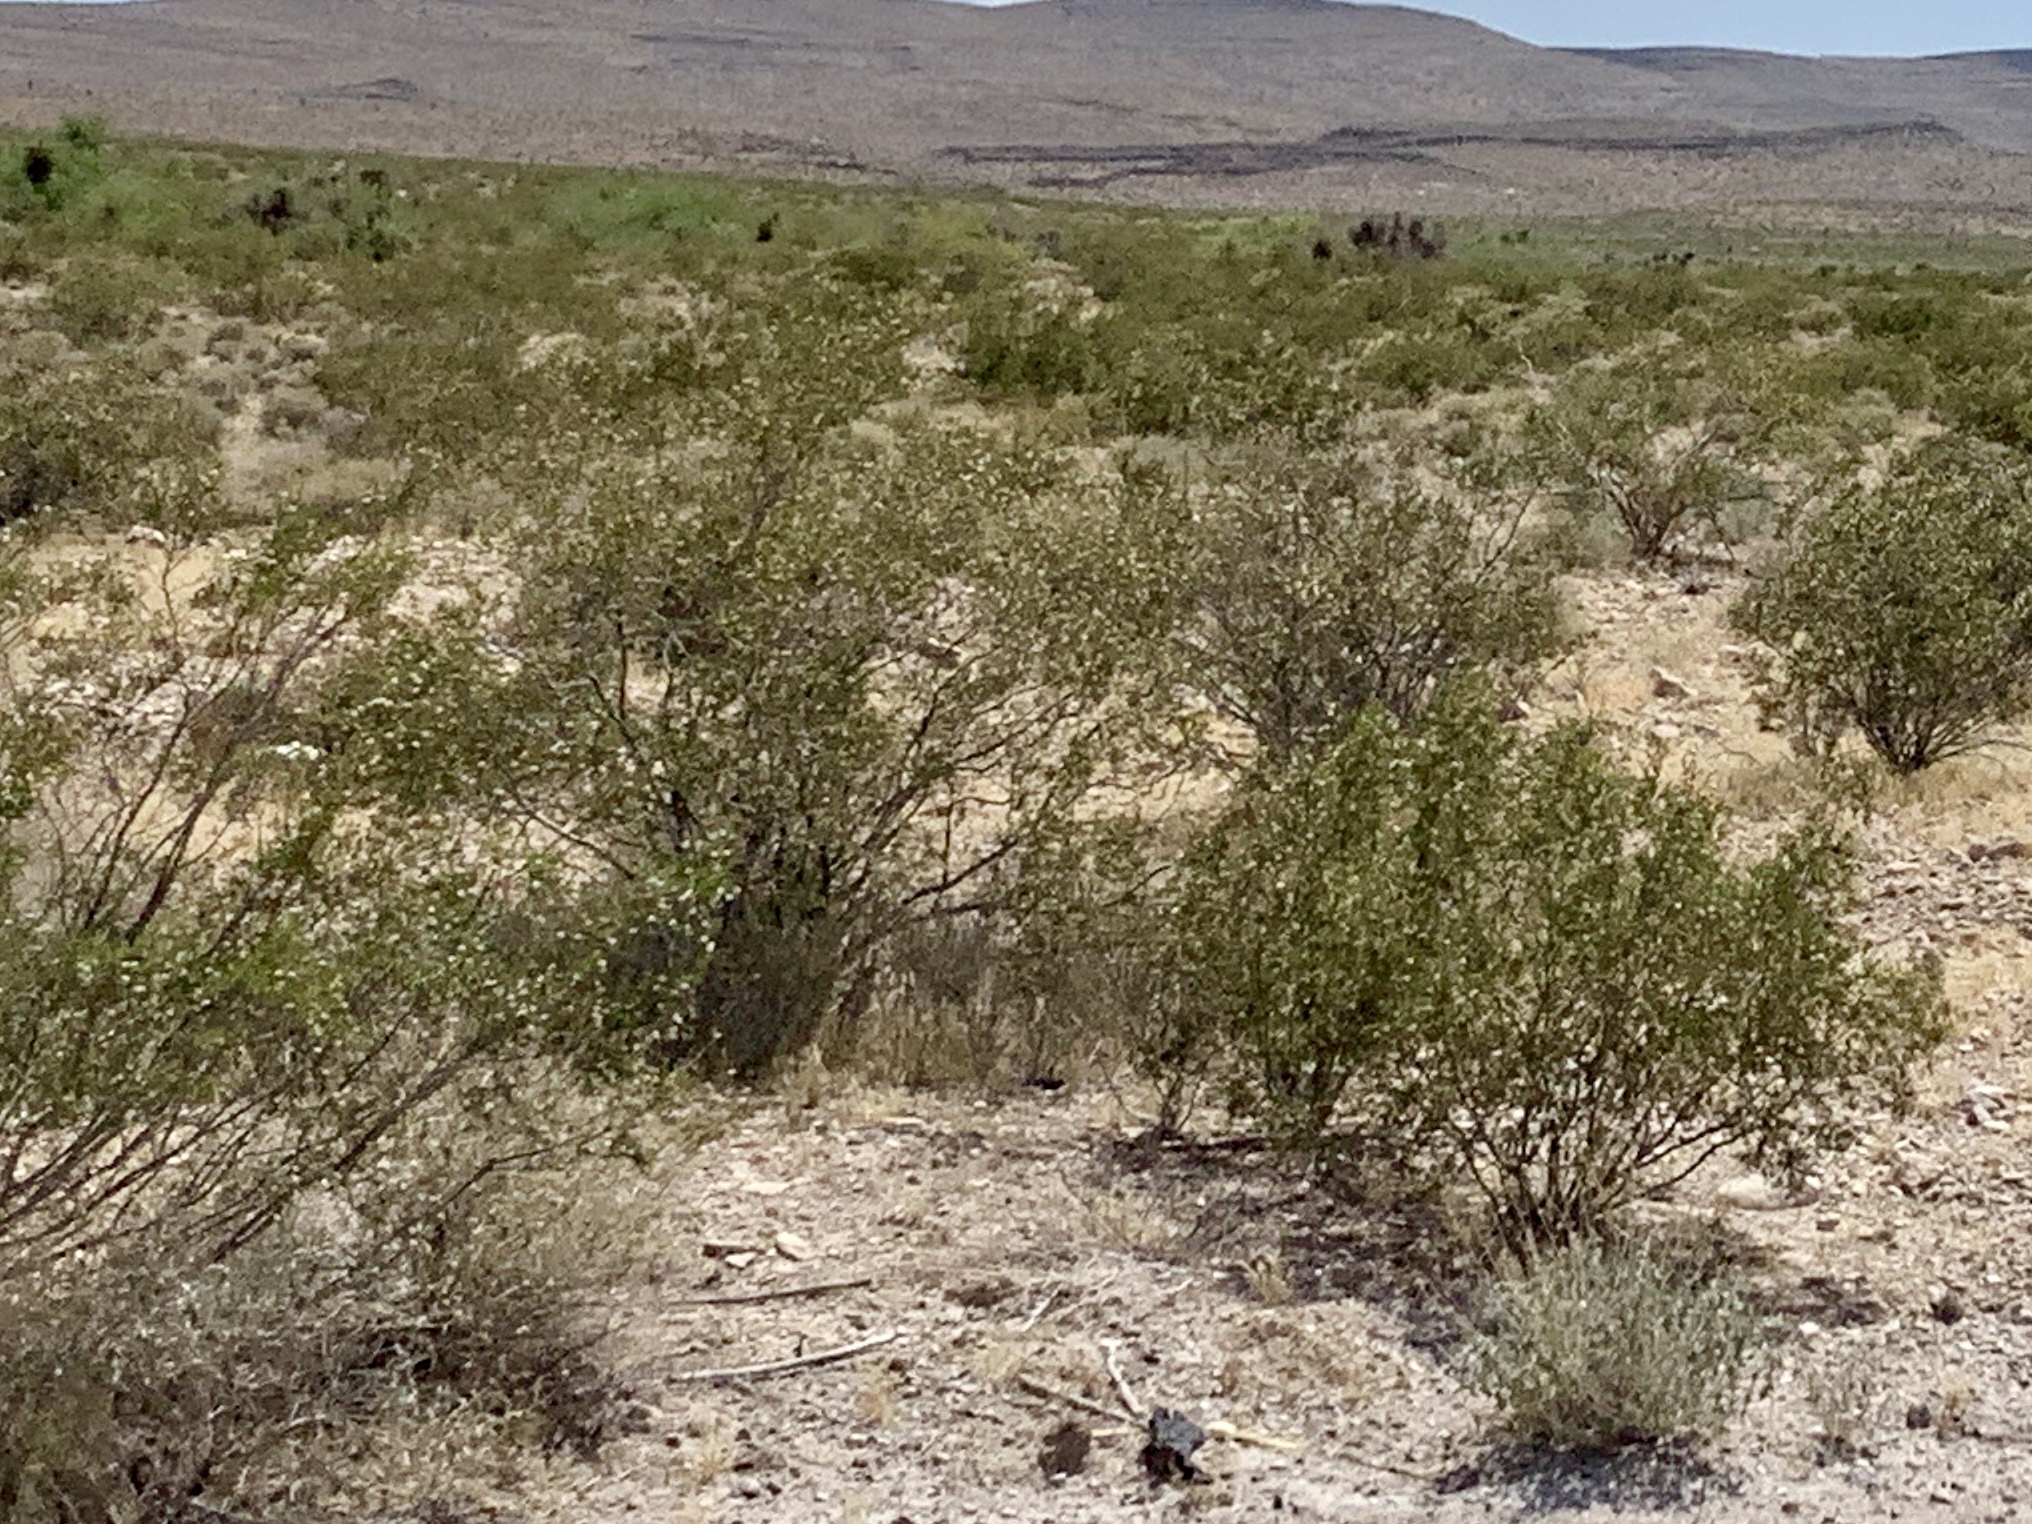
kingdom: Plantae
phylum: Tracheophyta
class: Magnoliopsida
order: Zygophyllales
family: Zygophyllaceae
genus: Larrea
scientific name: Larrea tridentata
